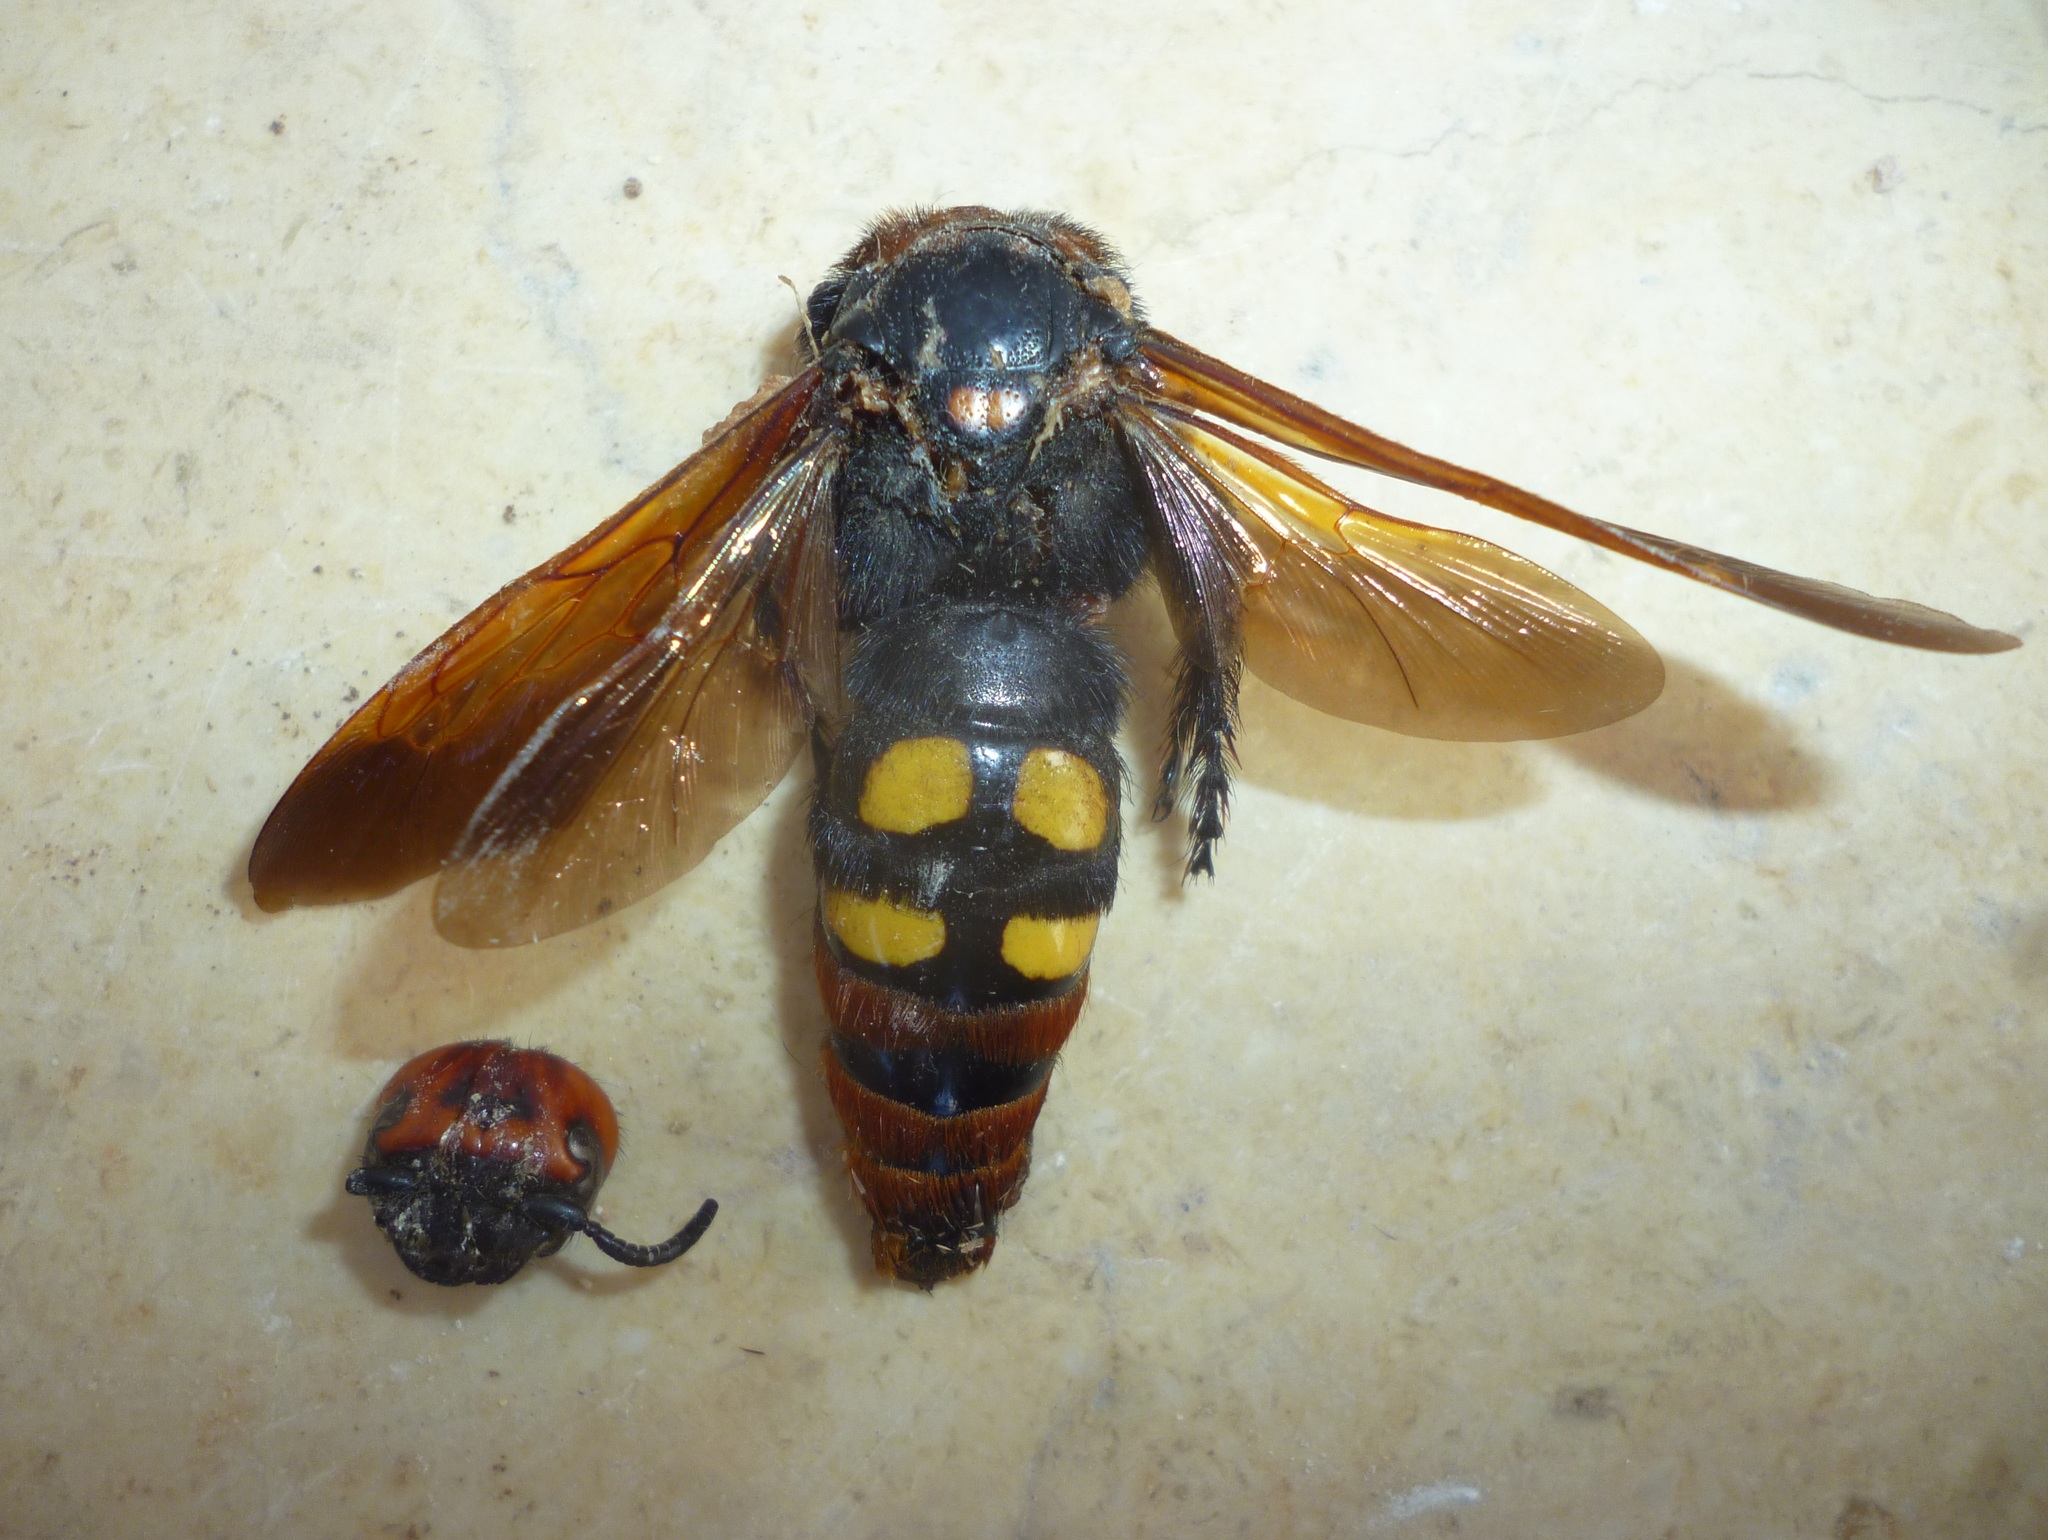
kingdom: Animalia
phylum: Arthropoda
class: Insecta
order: Hymenoptera
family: Scoliidae
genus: Megascolia
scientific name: Megascolia maculata
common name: Mammoth wasp
